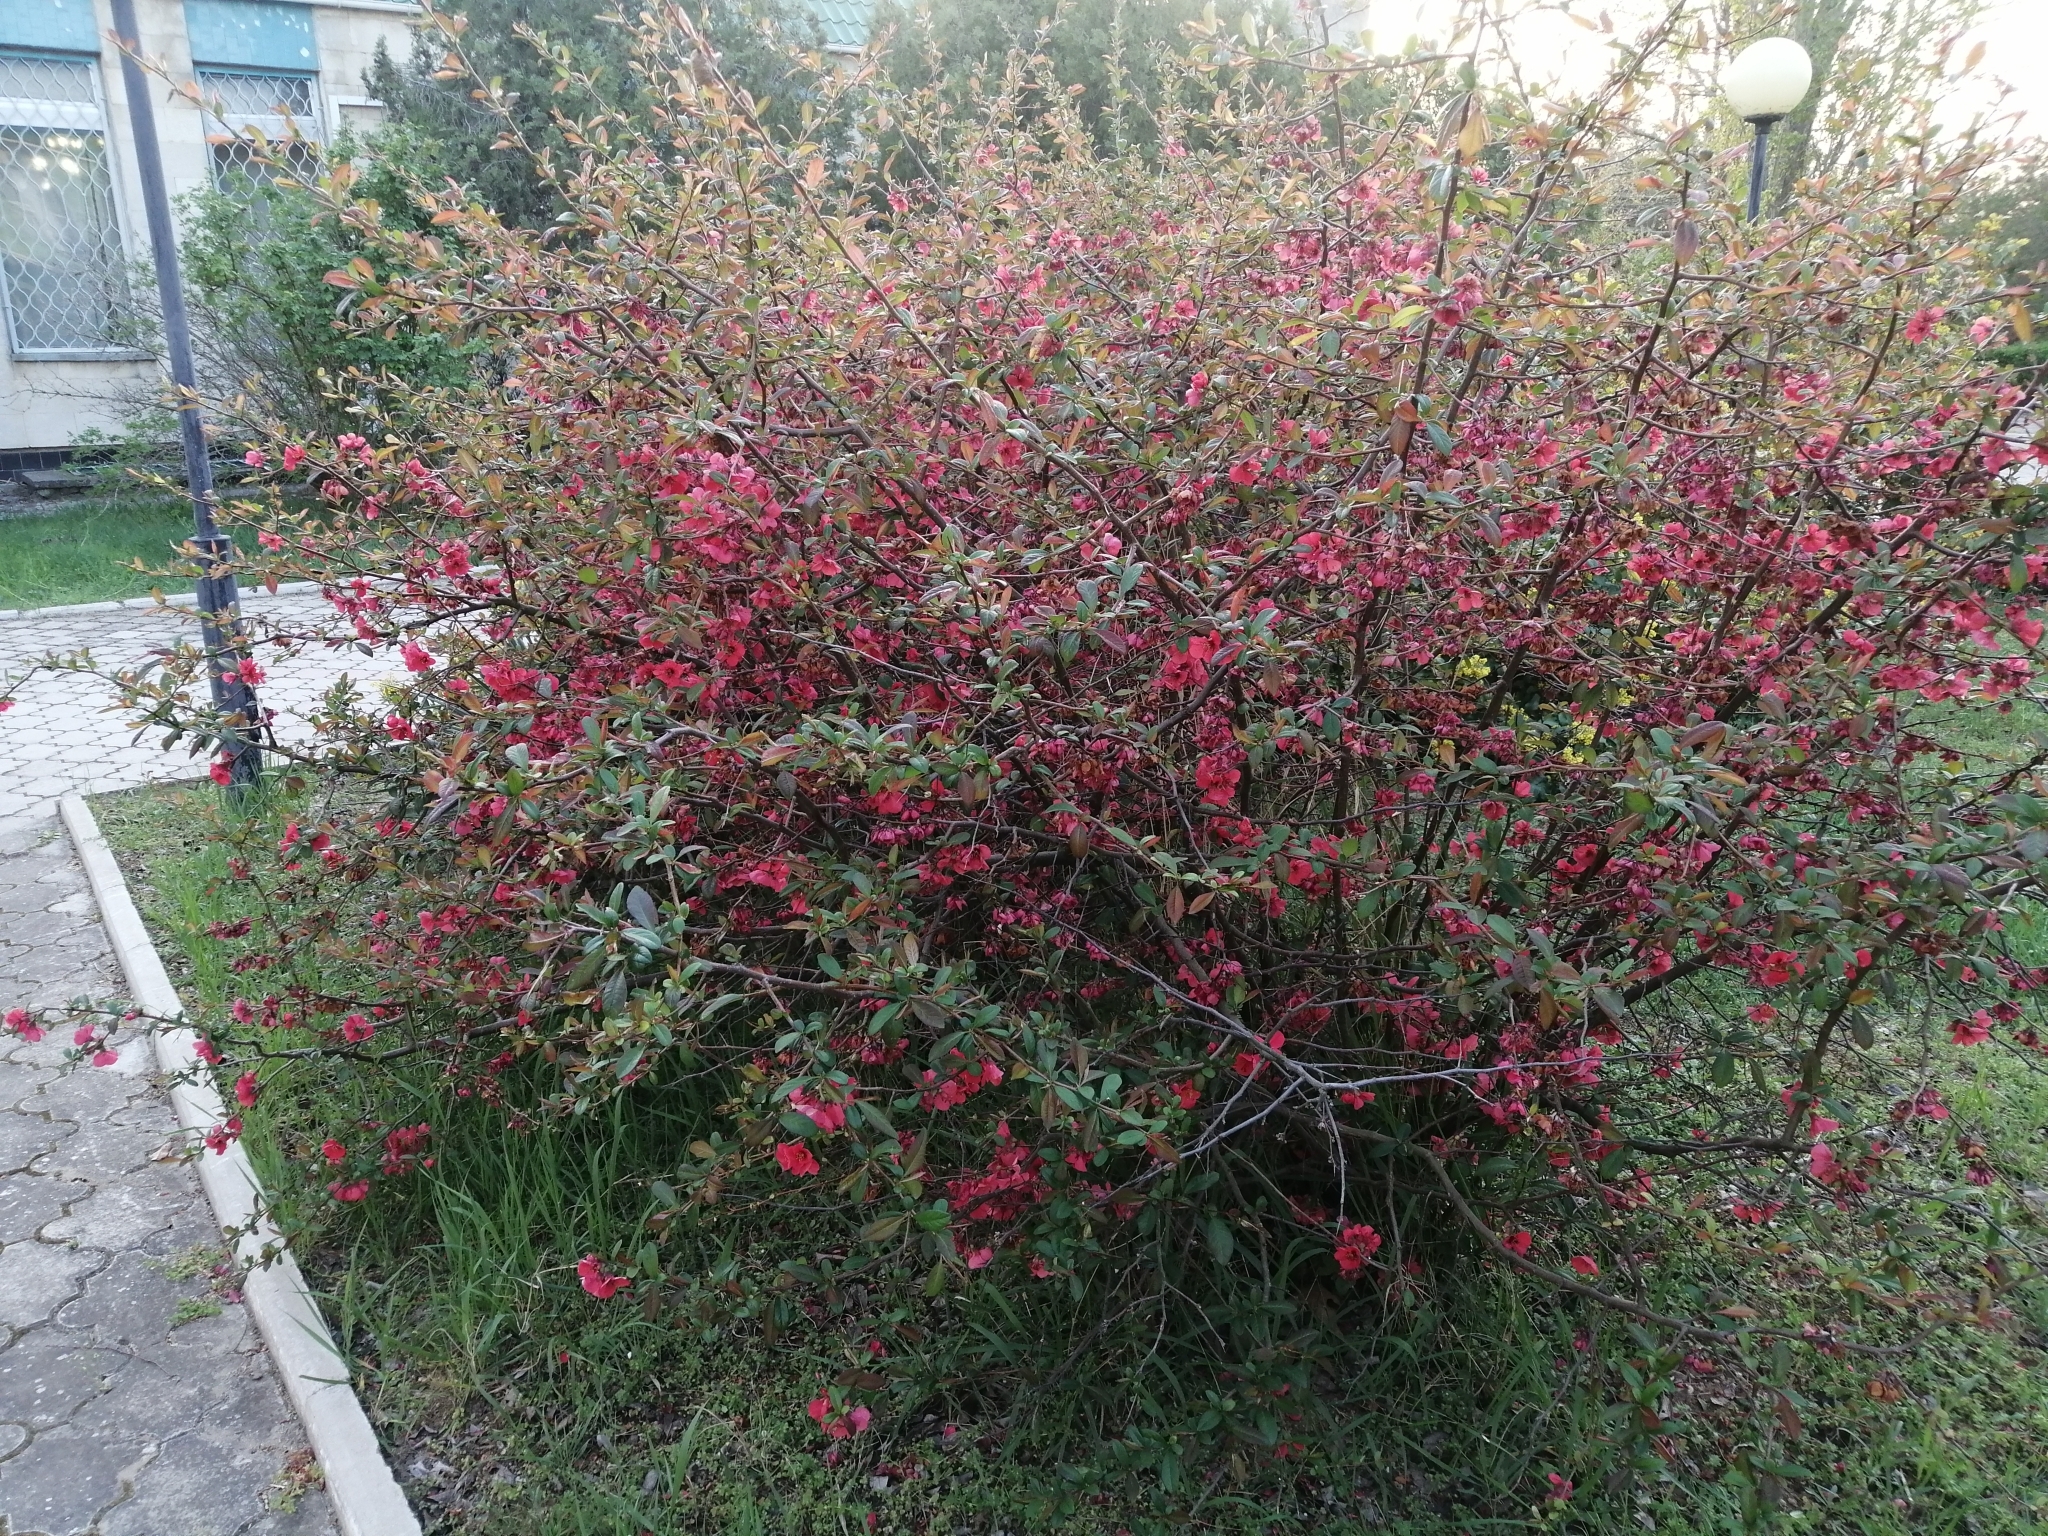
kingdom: Plantae
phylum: Tracheophyta
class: Magnoliopsida
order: Rosales
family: Rosaceae
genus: Chaenomeles
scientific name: Chaenomeles speciosa
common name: Japanese quince
